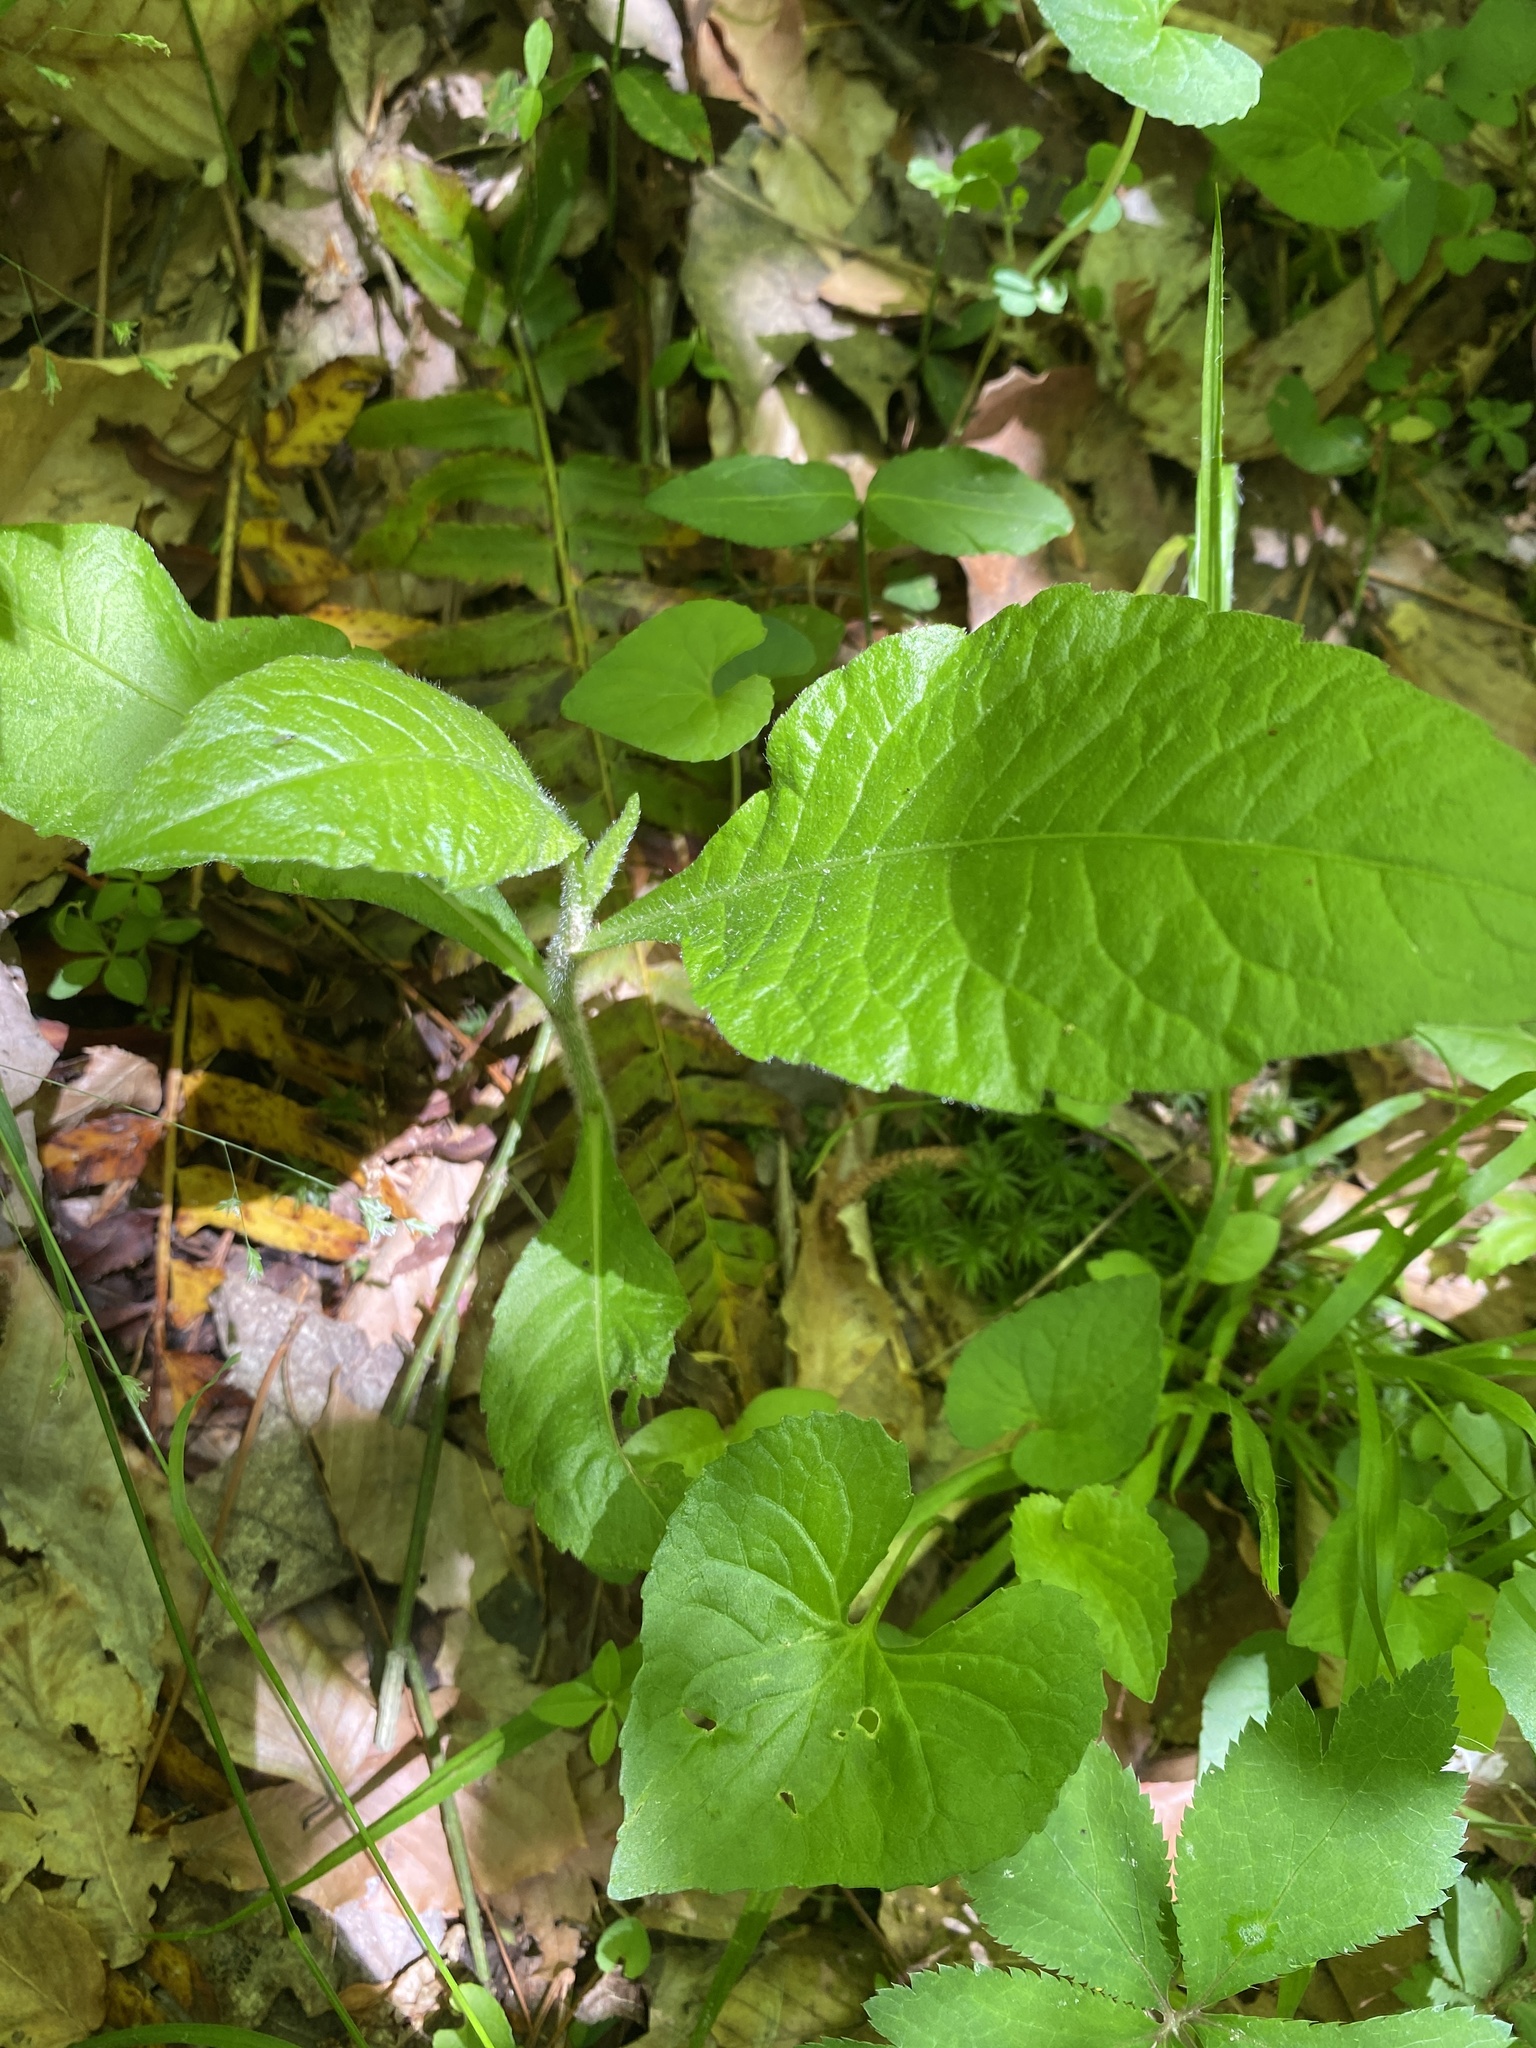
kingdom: Plantae
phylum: Tracheophyta
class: Magnoliopsida
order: Asterales
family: Asteraceae
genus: Elephantopus
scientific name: Elephantopus carolinianus
